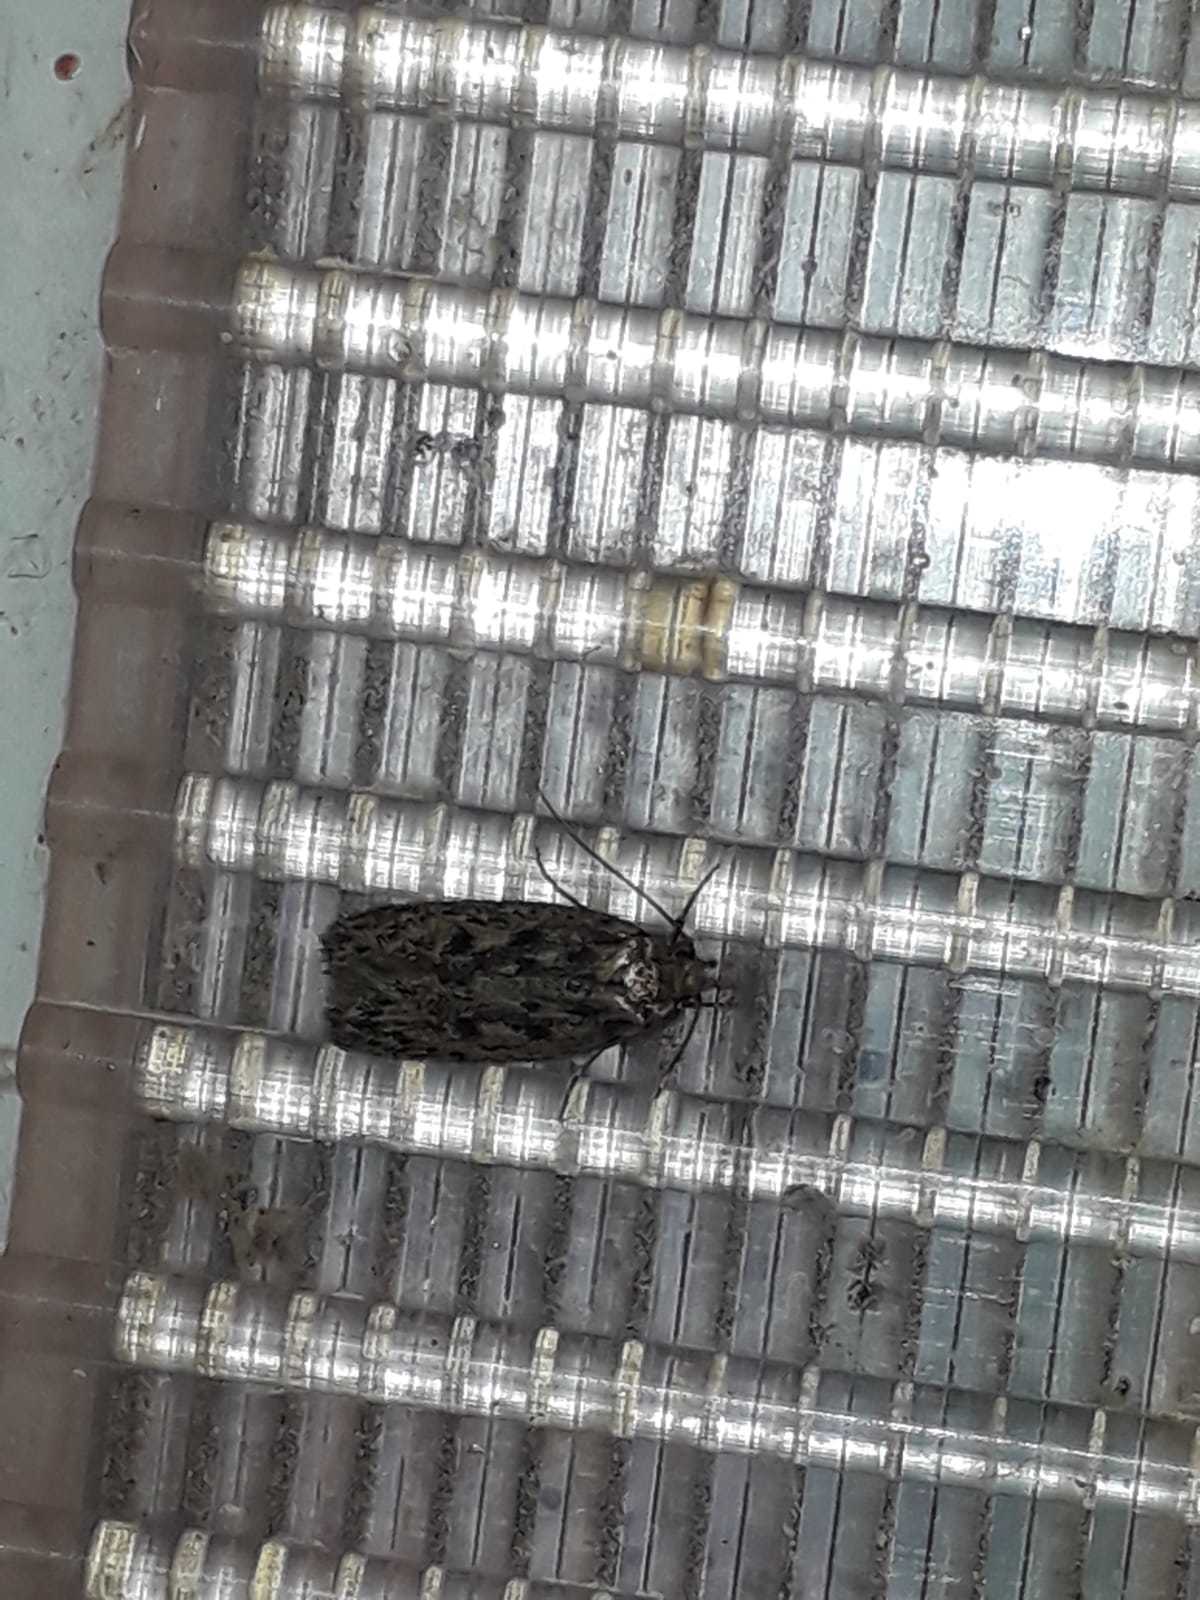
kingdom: Animalia
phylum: Arthropoda
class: Insecta
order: Lepidoptera
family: Oecophoridae
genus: Hofmannophila
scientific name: Hofmannophila pseudospretella
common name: Brown house moth
